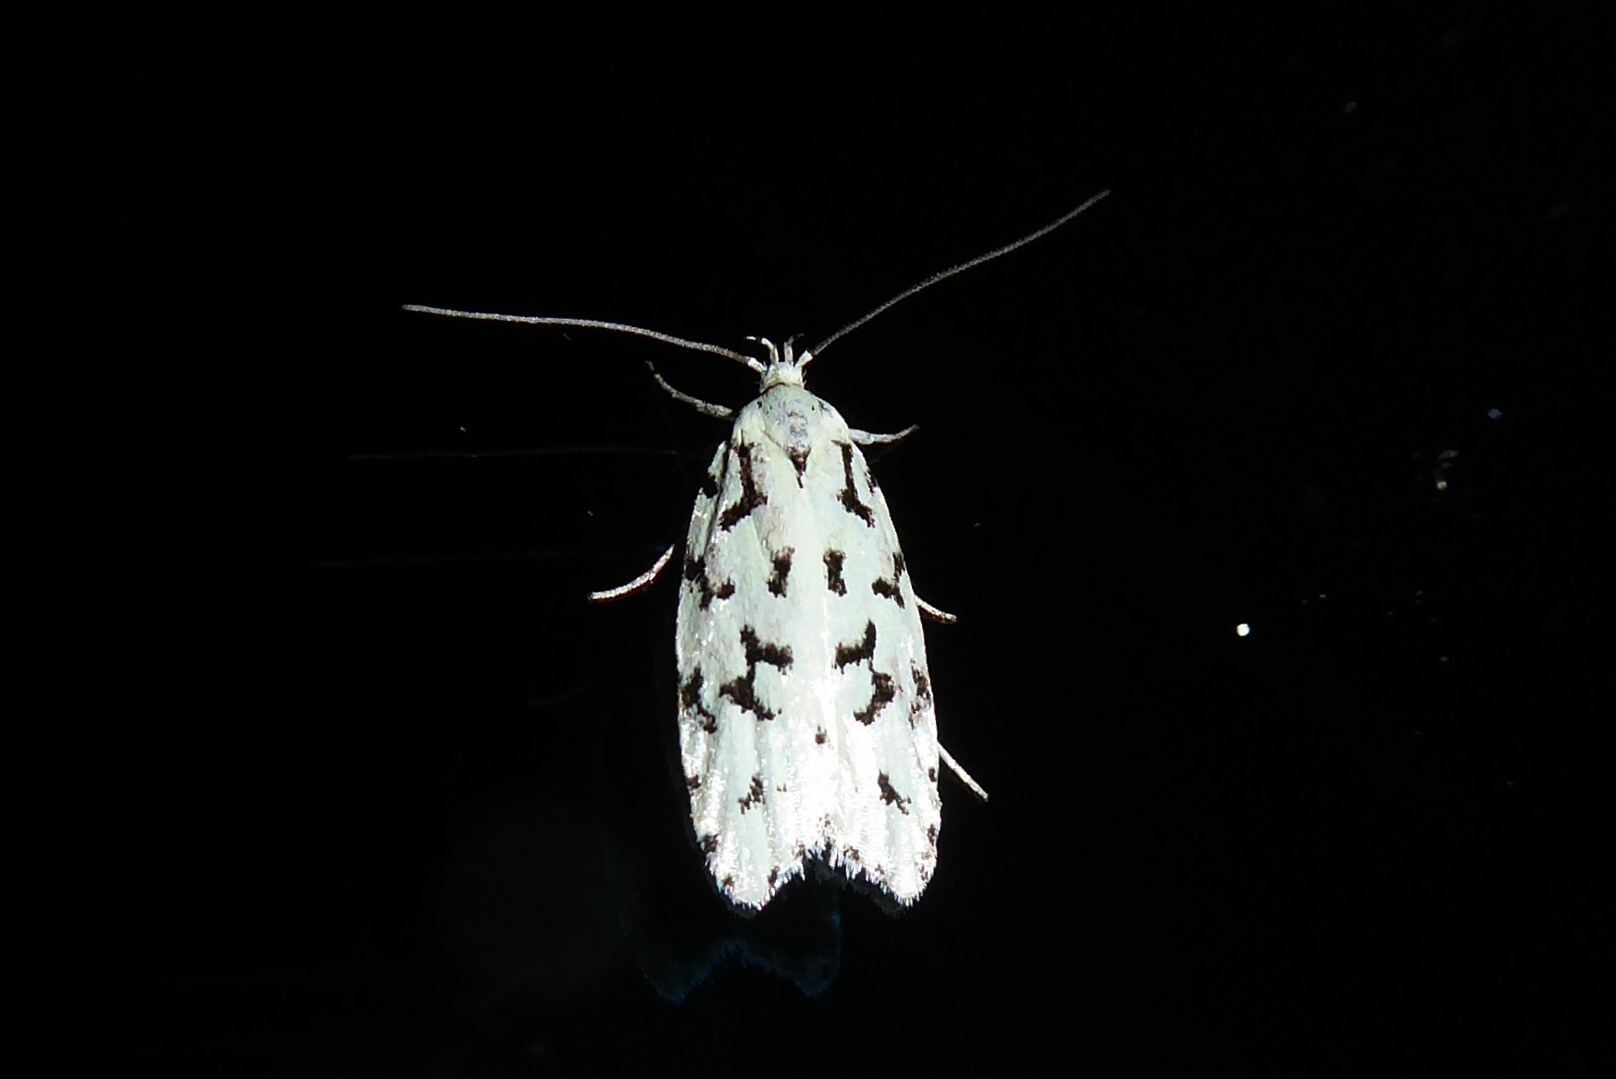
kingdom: Animalia
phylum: Arthropoda
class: Insecta
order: Lepidoptera
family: Oecophoridae
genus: Izatha
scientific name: Izatha huttoni
